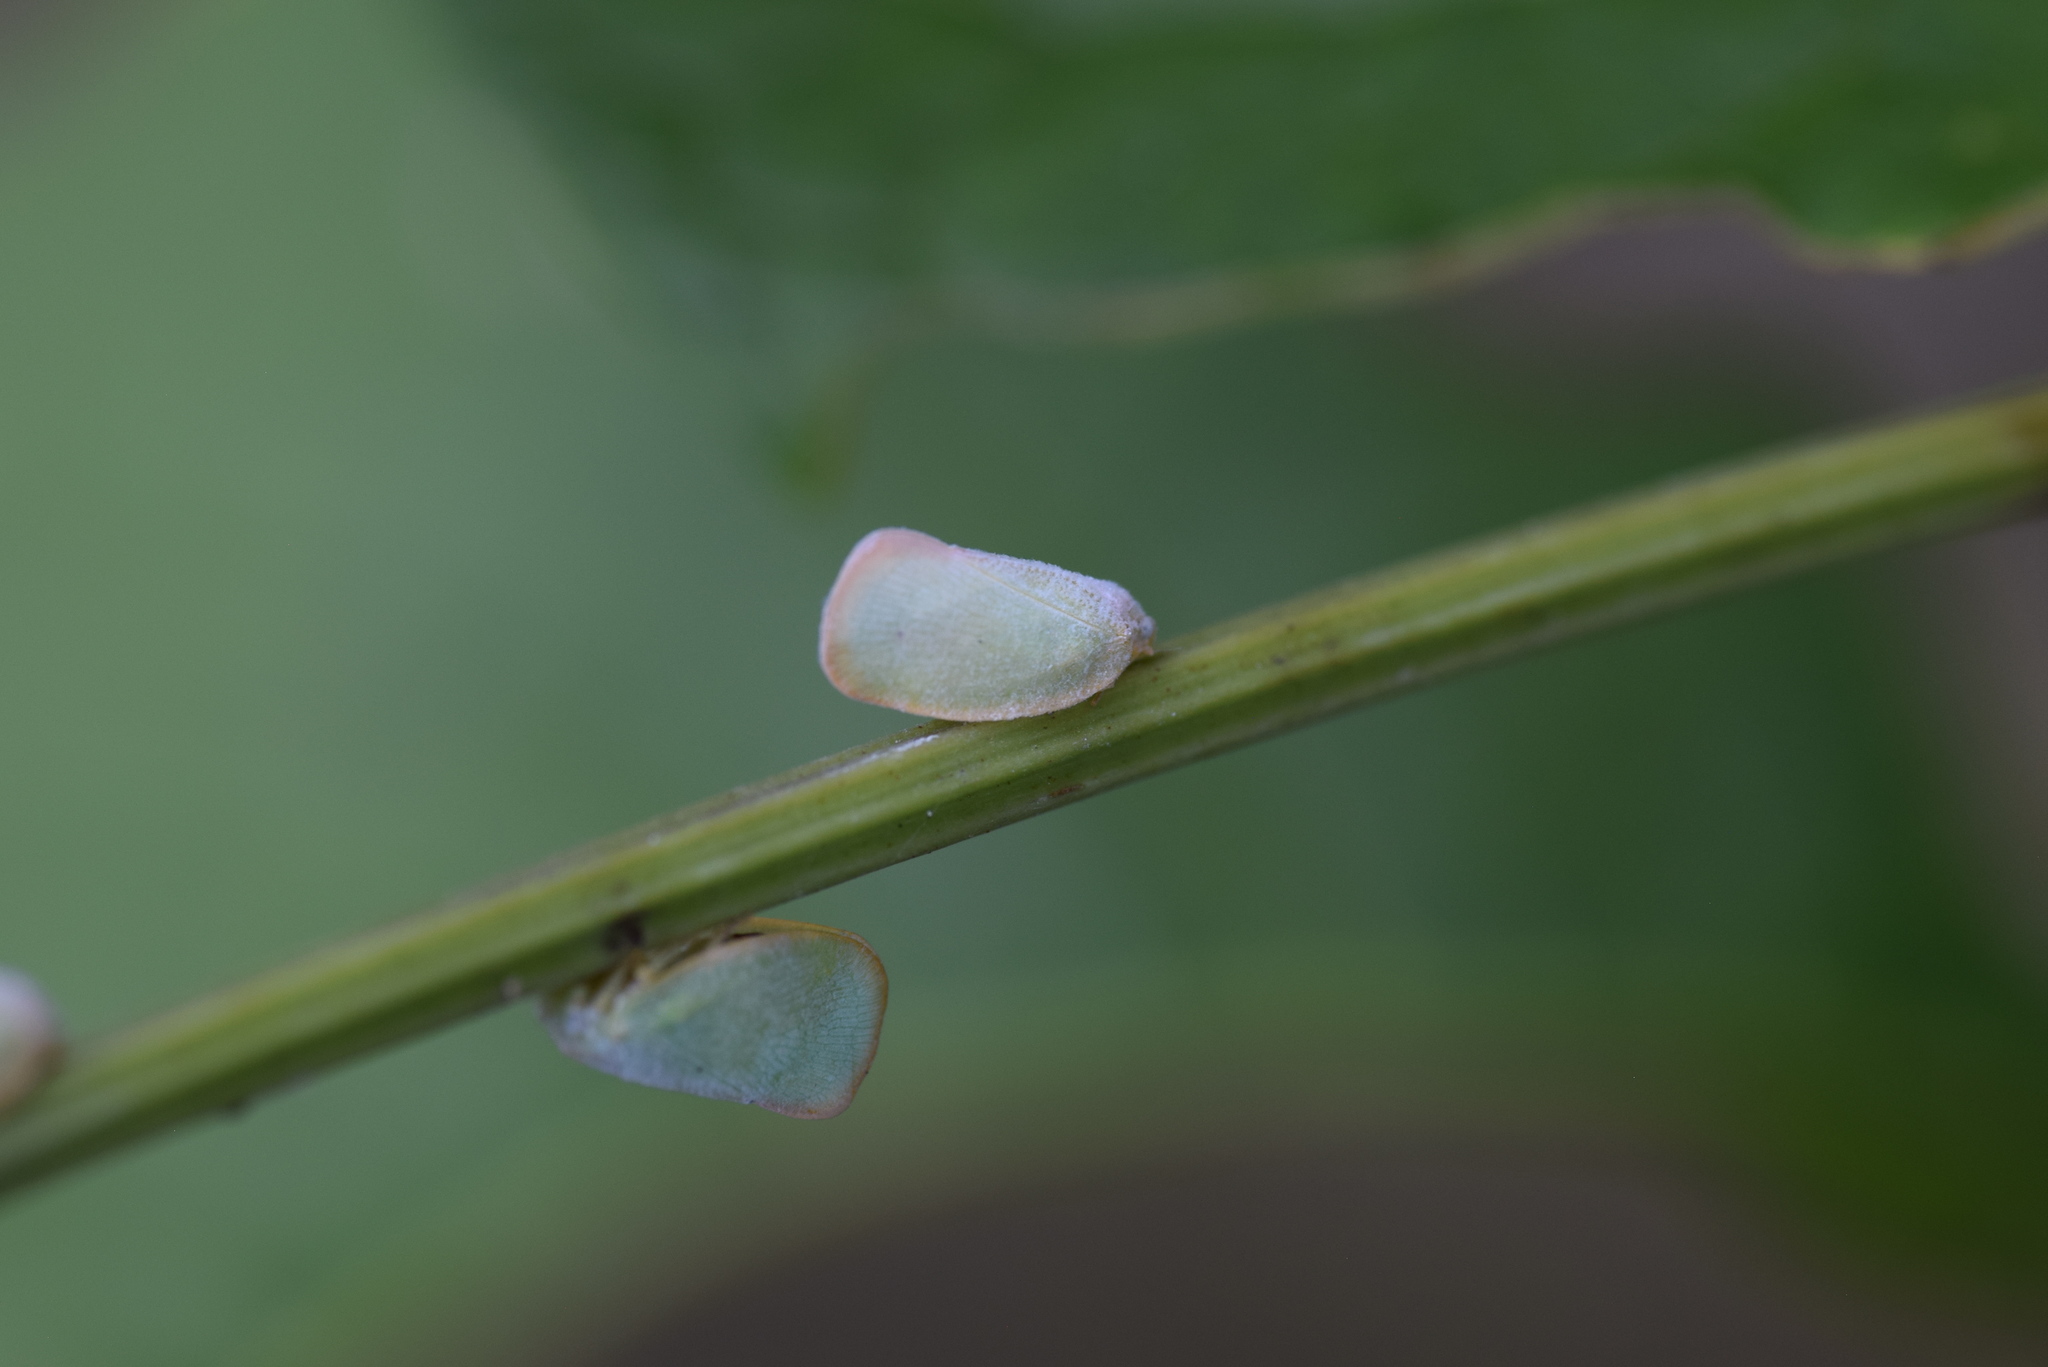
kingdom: Animalia
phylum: Arthropoda
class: Insecta
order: Hemiptera
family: Flatidae
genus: Ormenoides
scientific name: Ormenoides venusta
